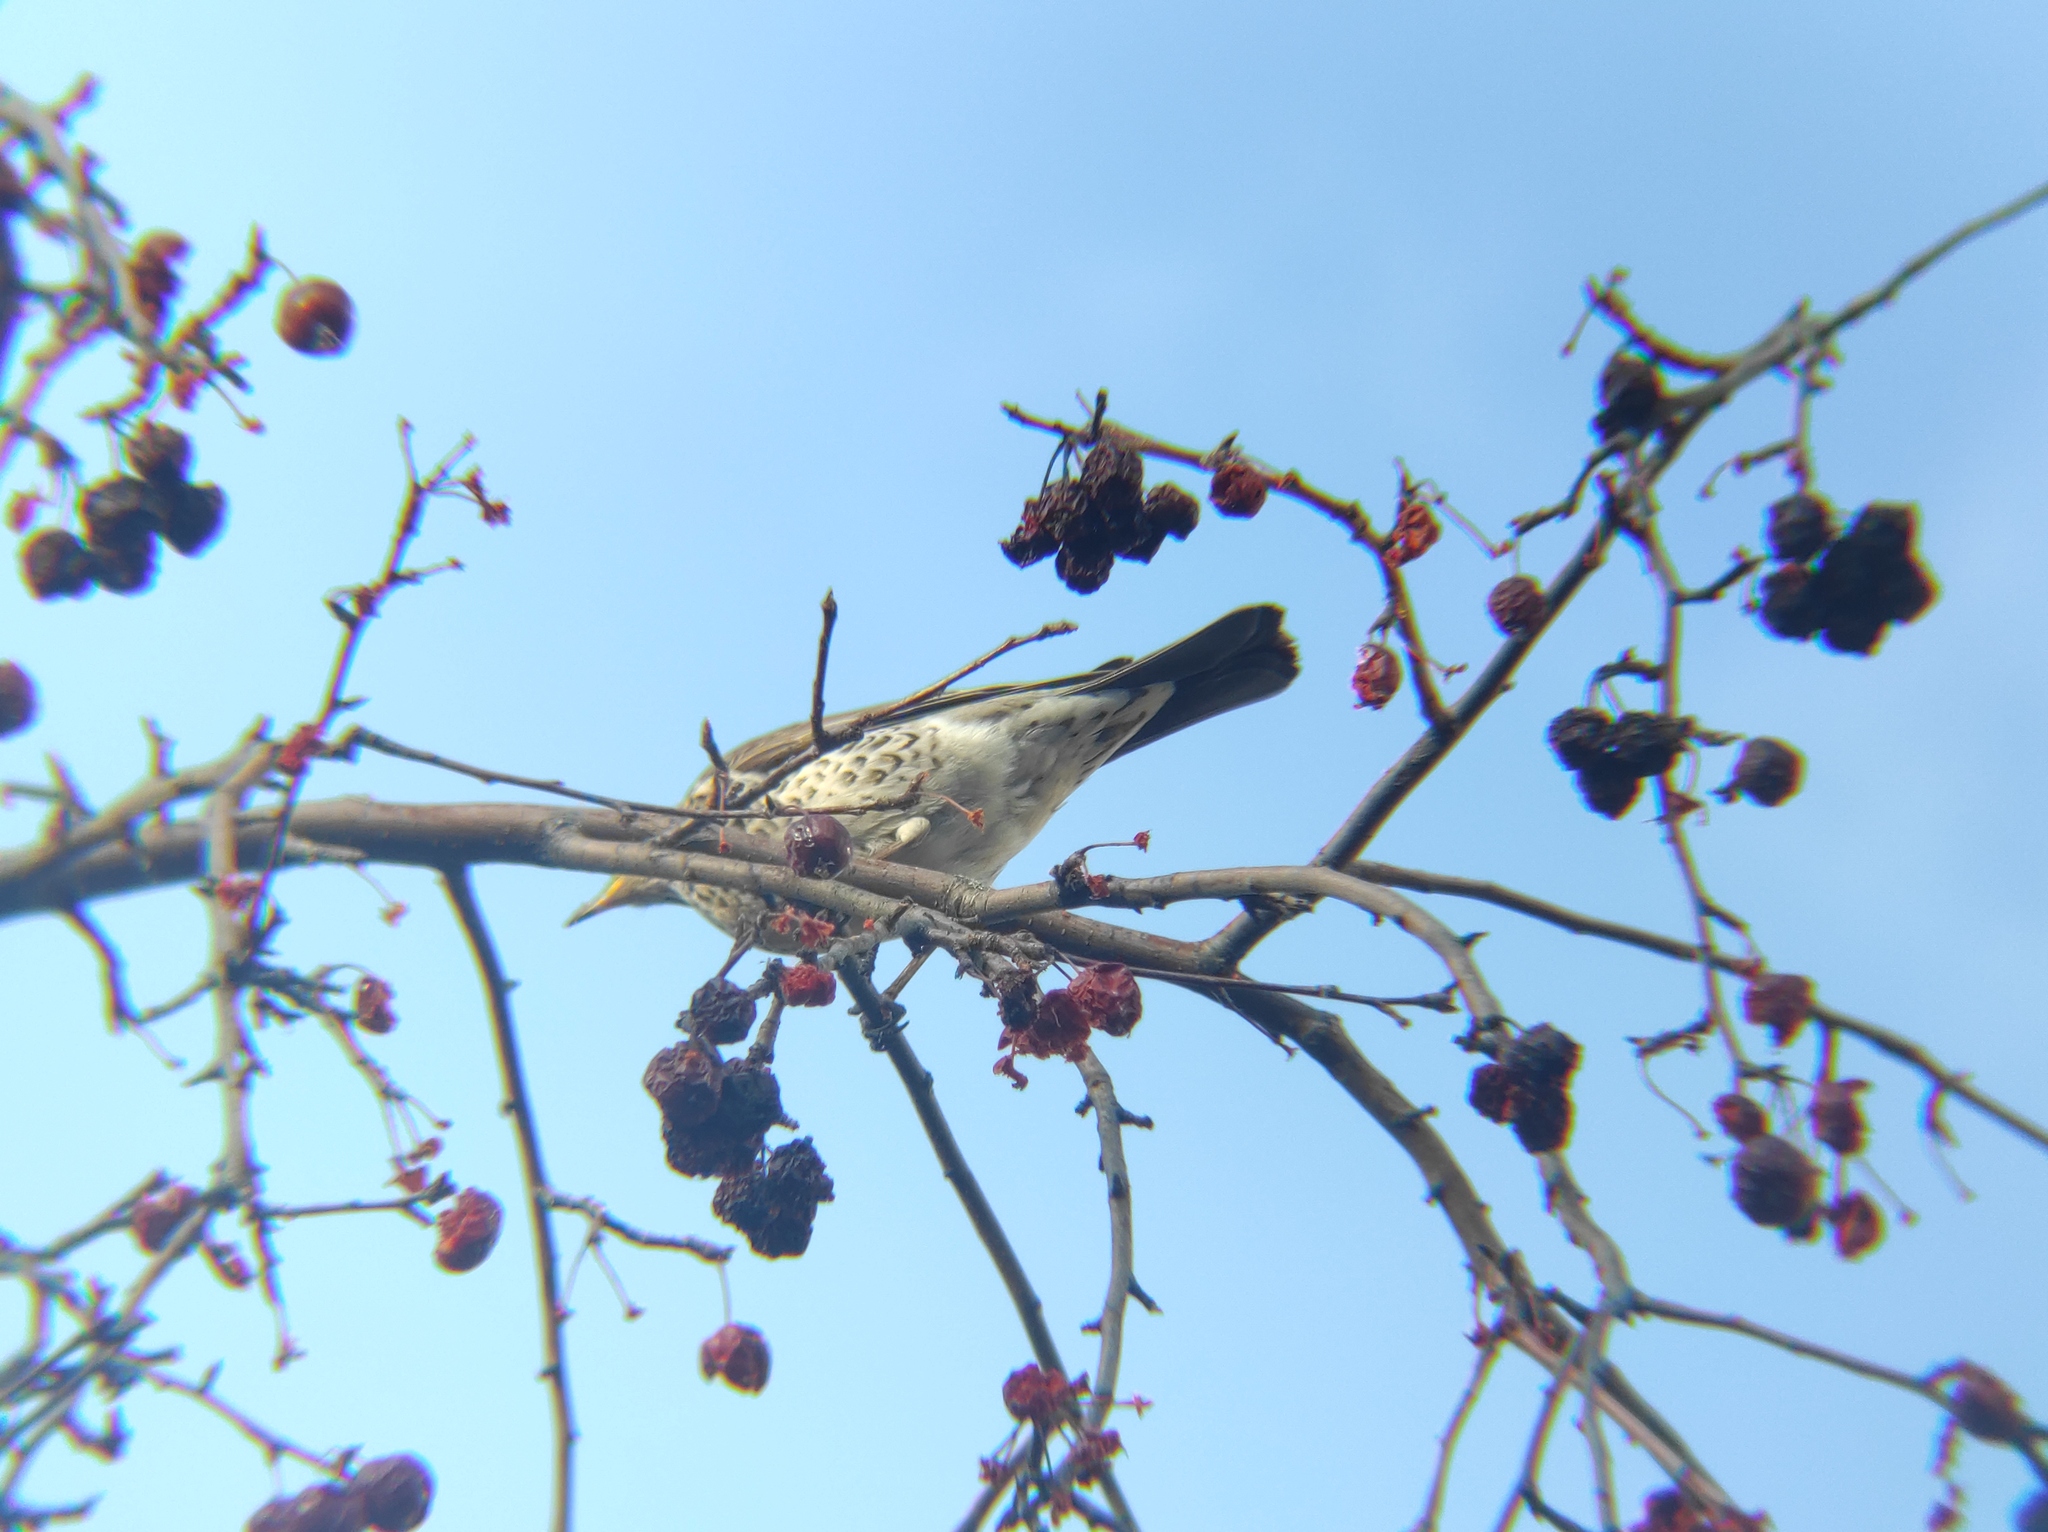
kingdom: Animalia
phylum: Chordata
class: Aves
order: Passeriformes
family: Turdidae
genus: Turdus
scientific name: Turdus pilaris
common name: Fieldfare
